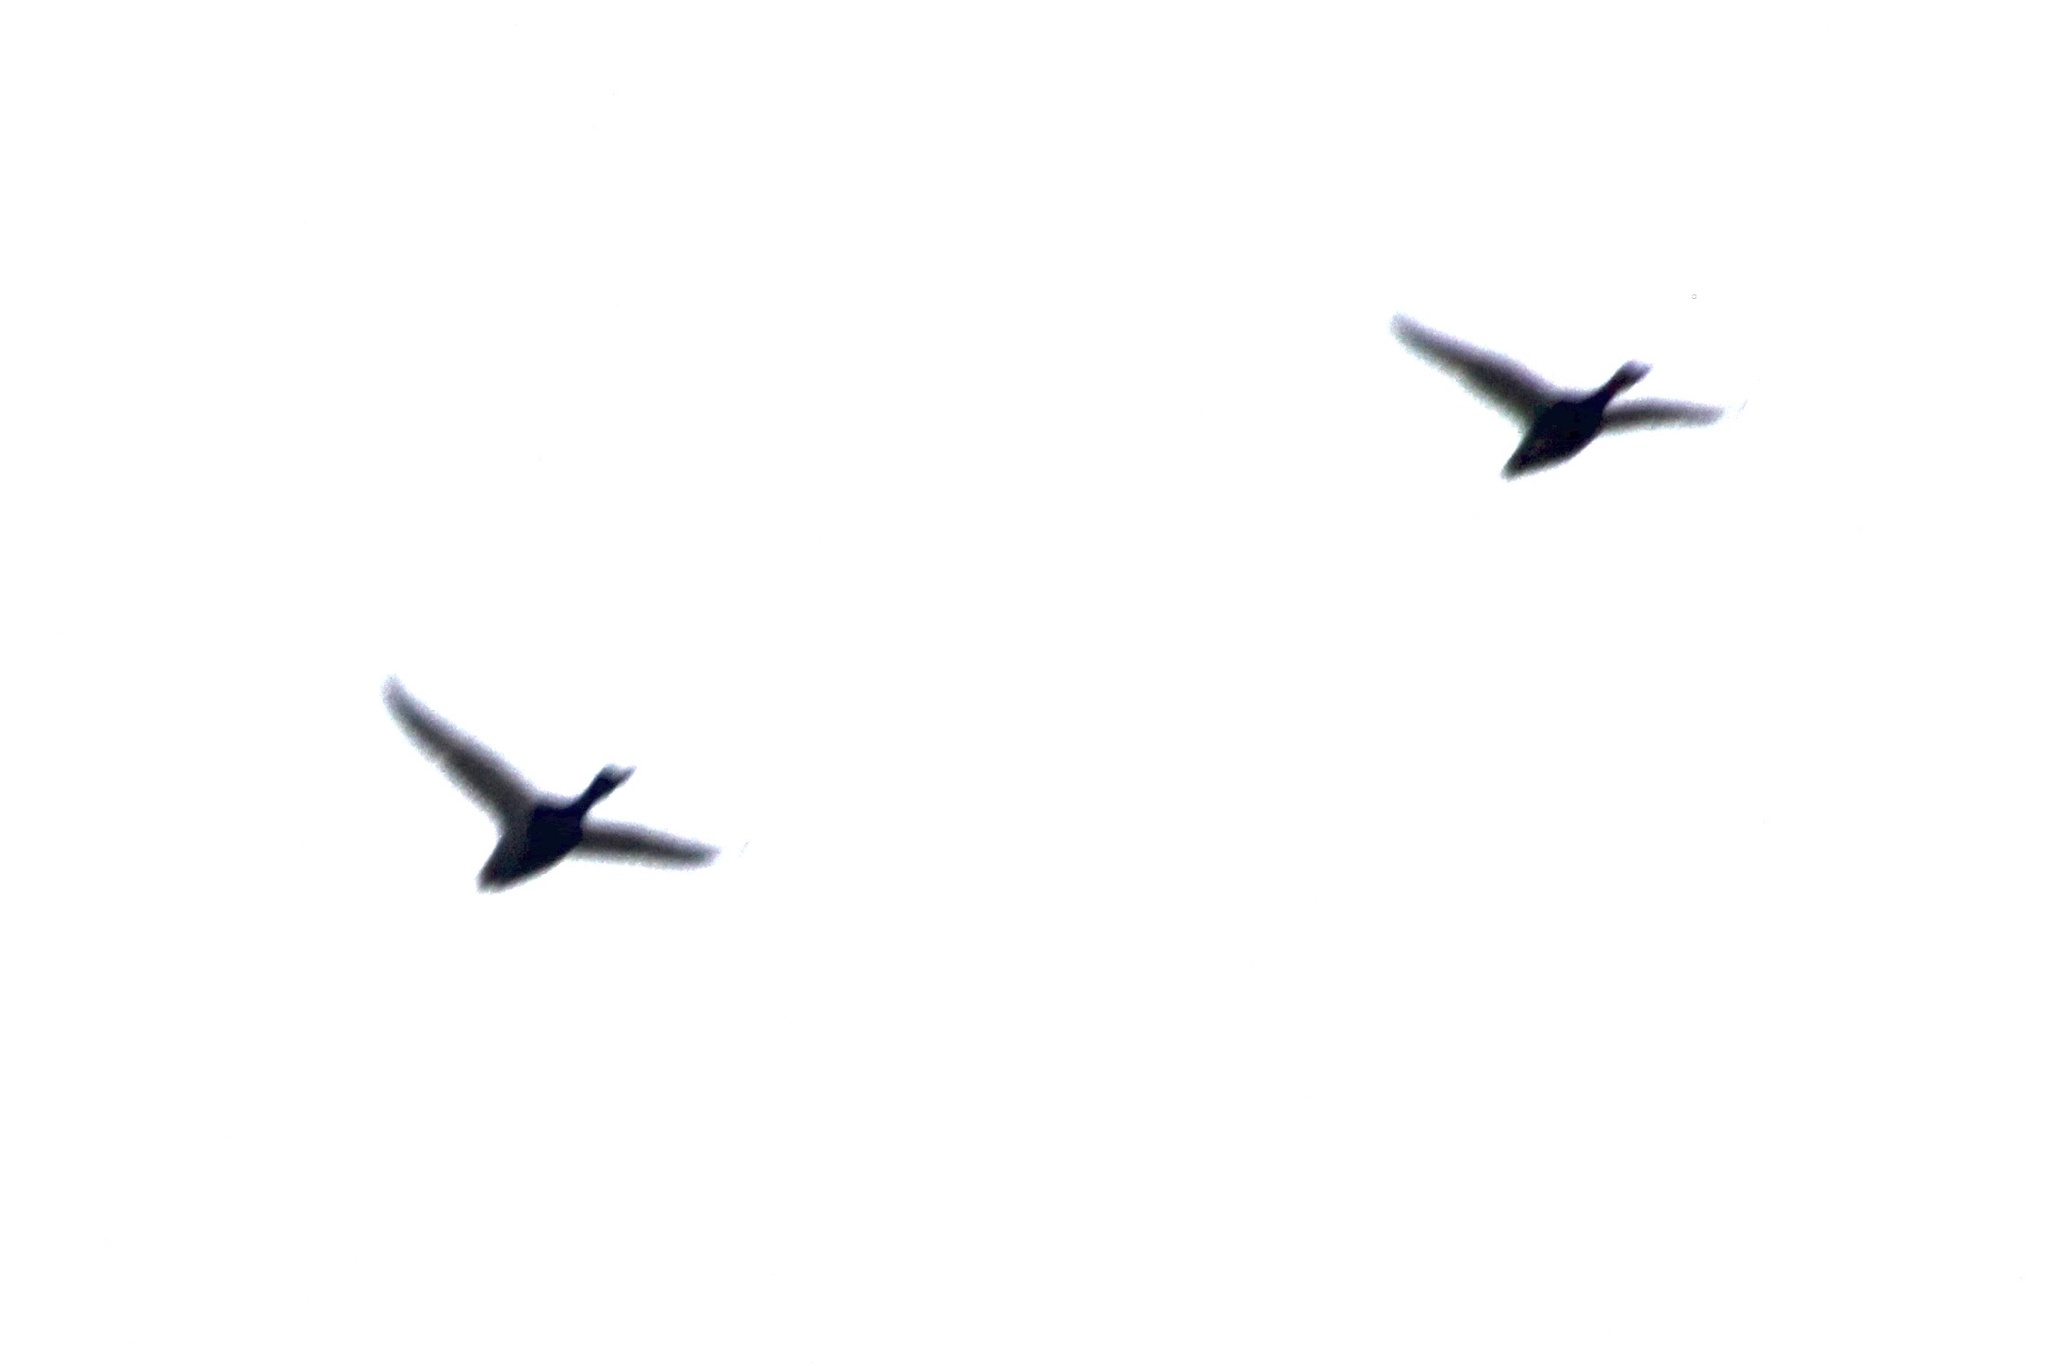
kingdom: Animalia
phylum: Chordata
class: Aves
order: Anseriformes
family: Anatidae
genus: Anas
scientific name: Anas platyrhynchos
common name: Mallard
